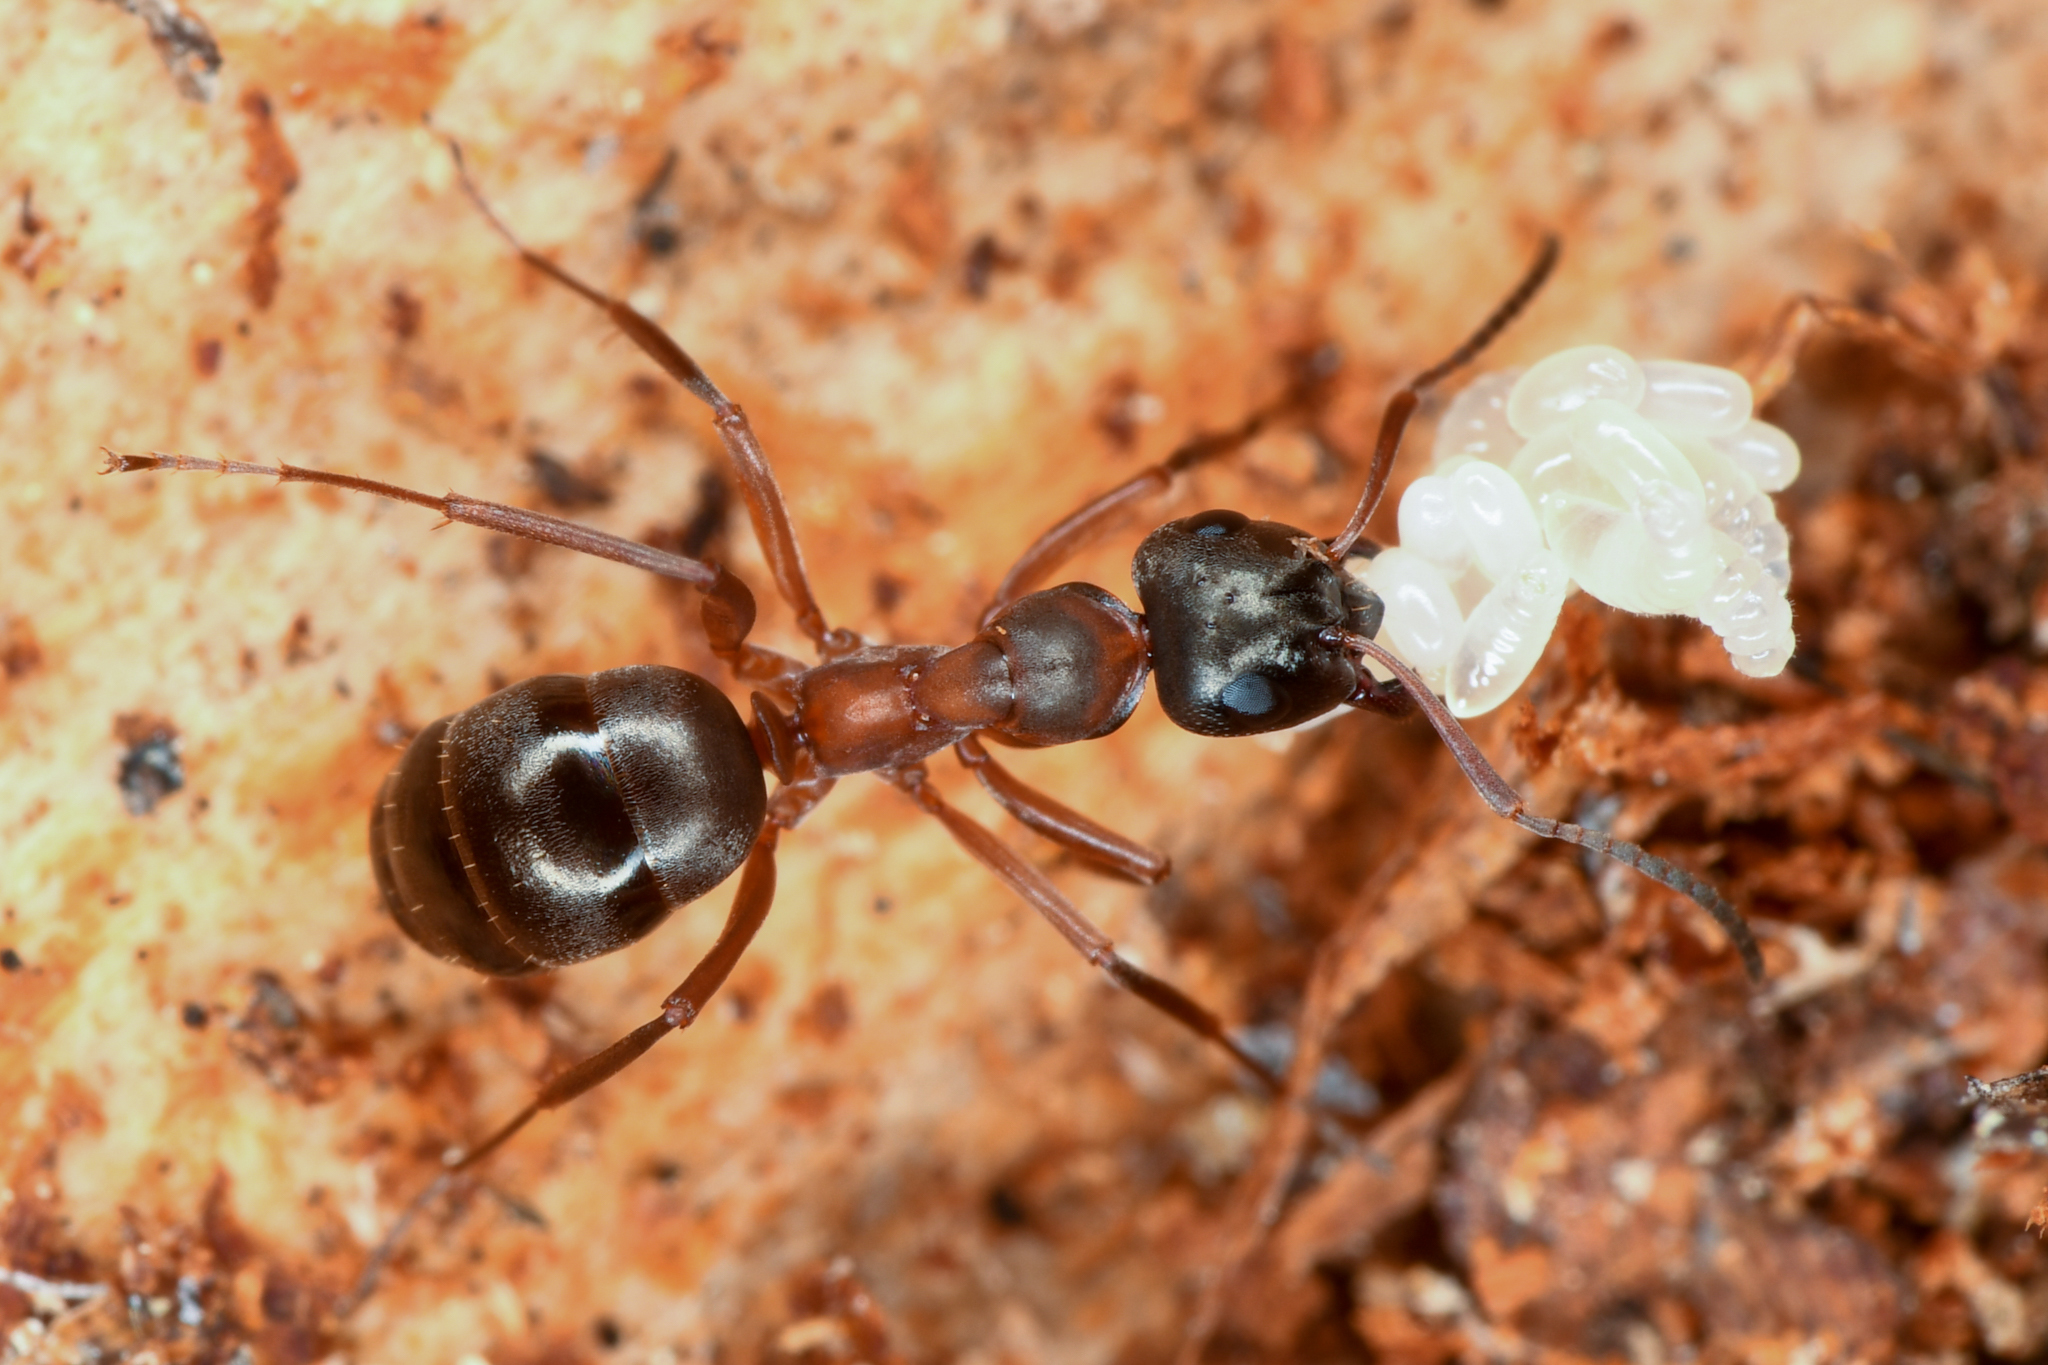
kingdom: Animalia
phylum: Arthropoda
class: Insecta
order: Hymenoptera
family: Formicidae
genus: Formica
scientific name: Formica neorufibarbis
